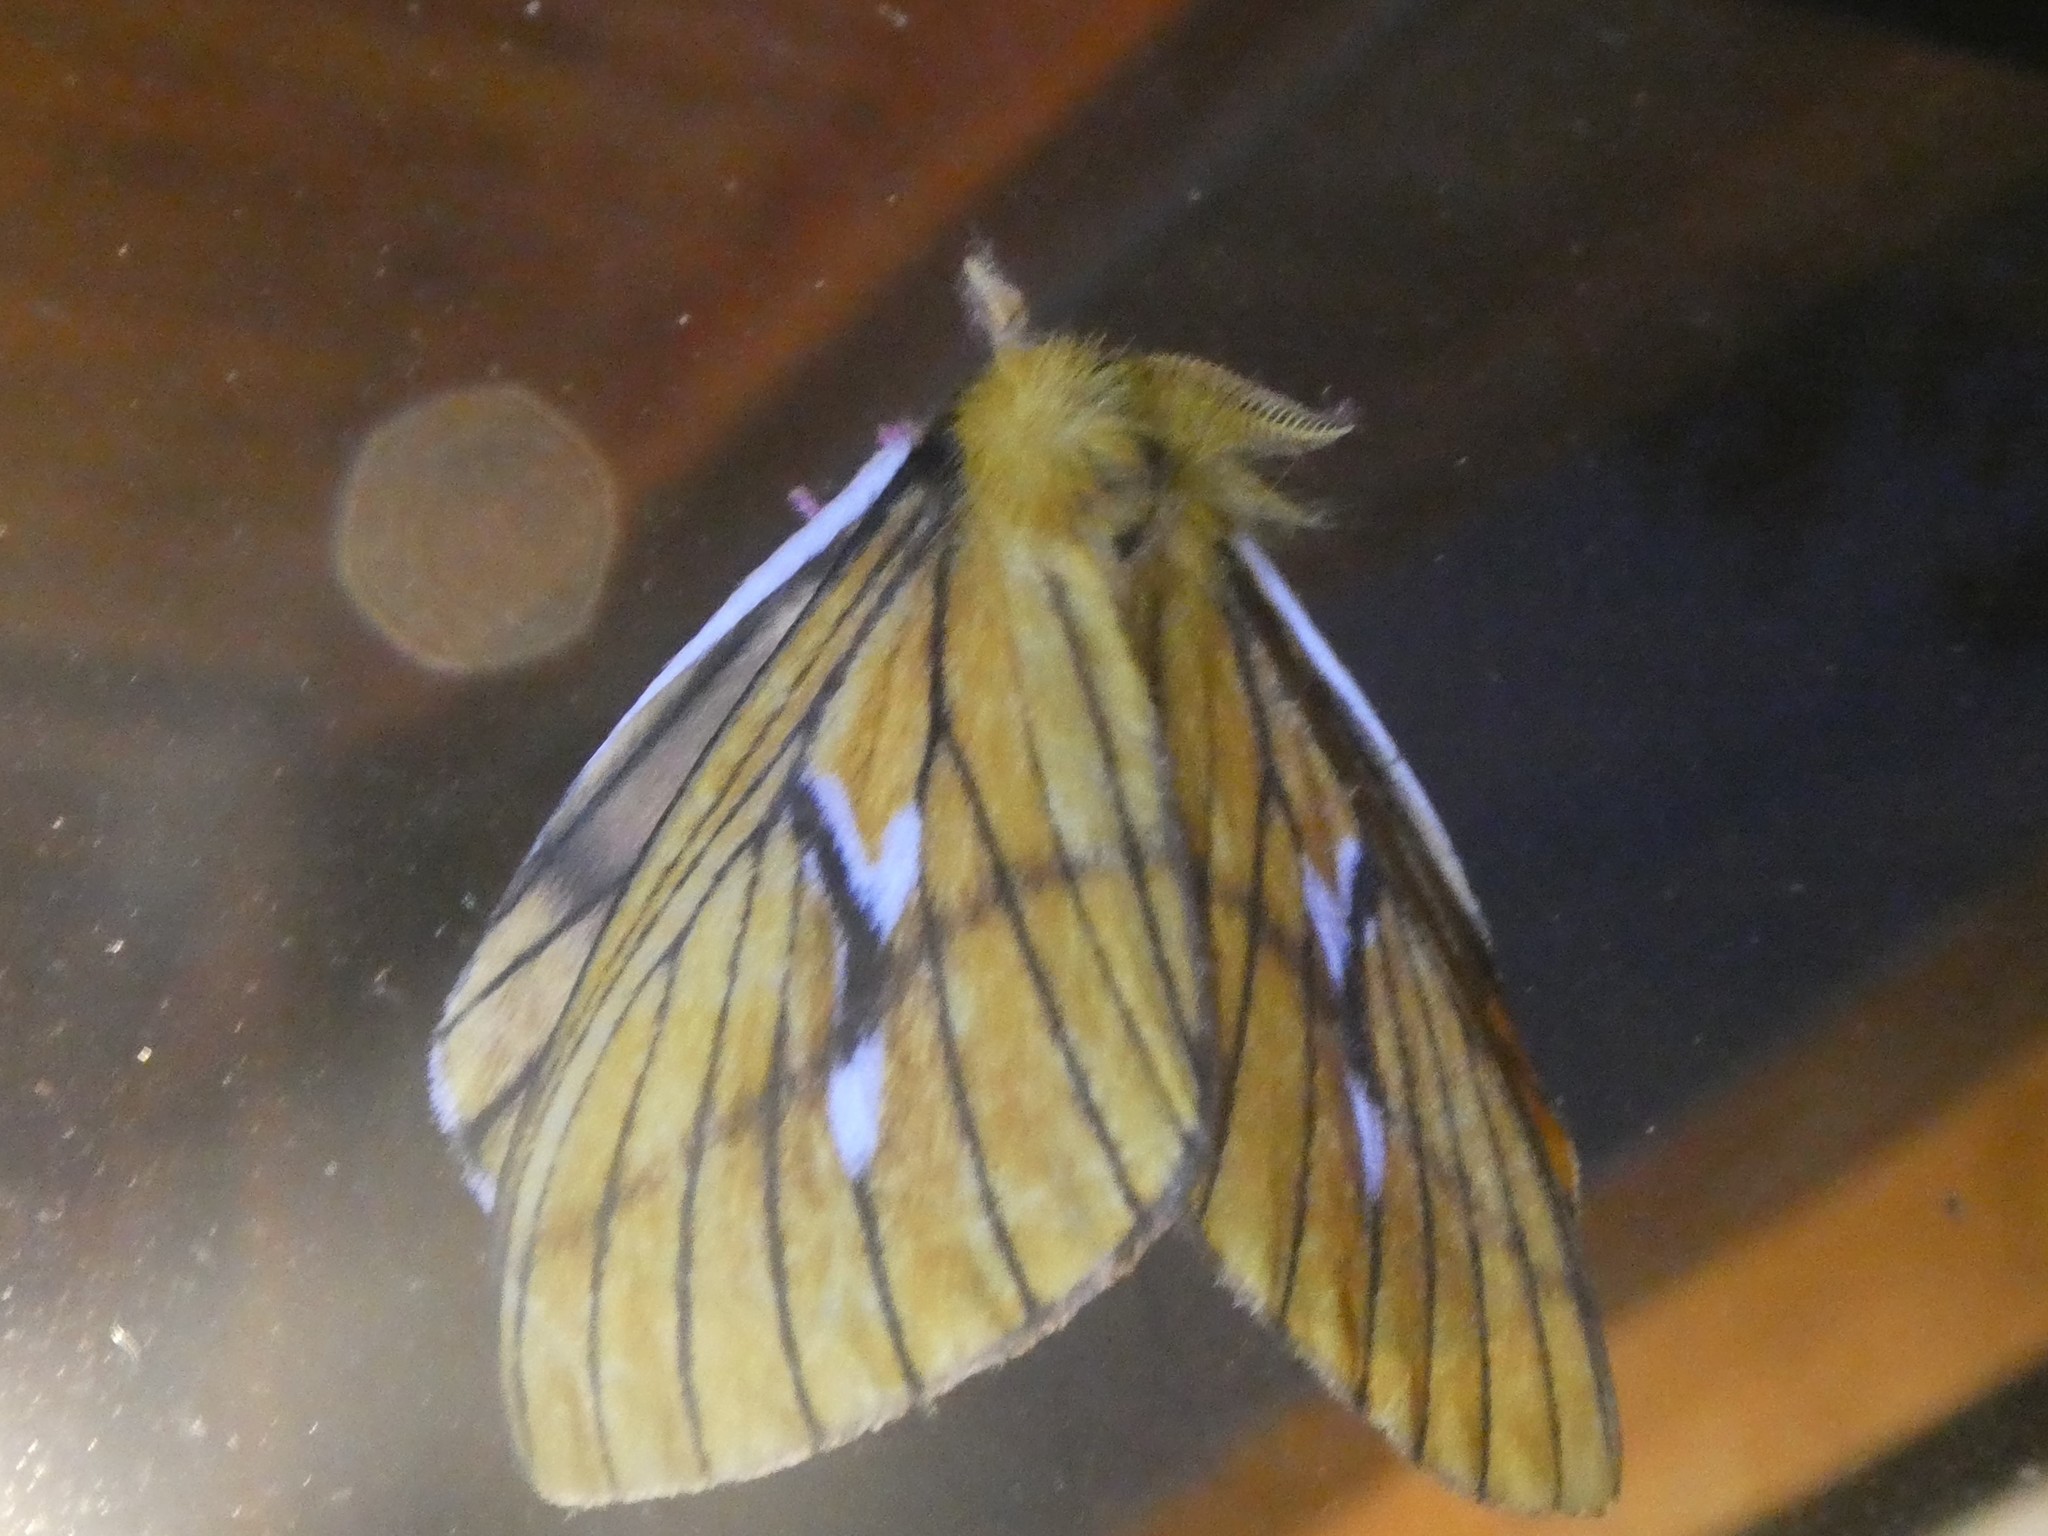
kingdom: Animalia
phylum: Arthropoda
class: Insecta
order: Lepidoptera
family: Saturniidae
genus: Cerodirphia
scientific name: Cerodirphia nadiana
